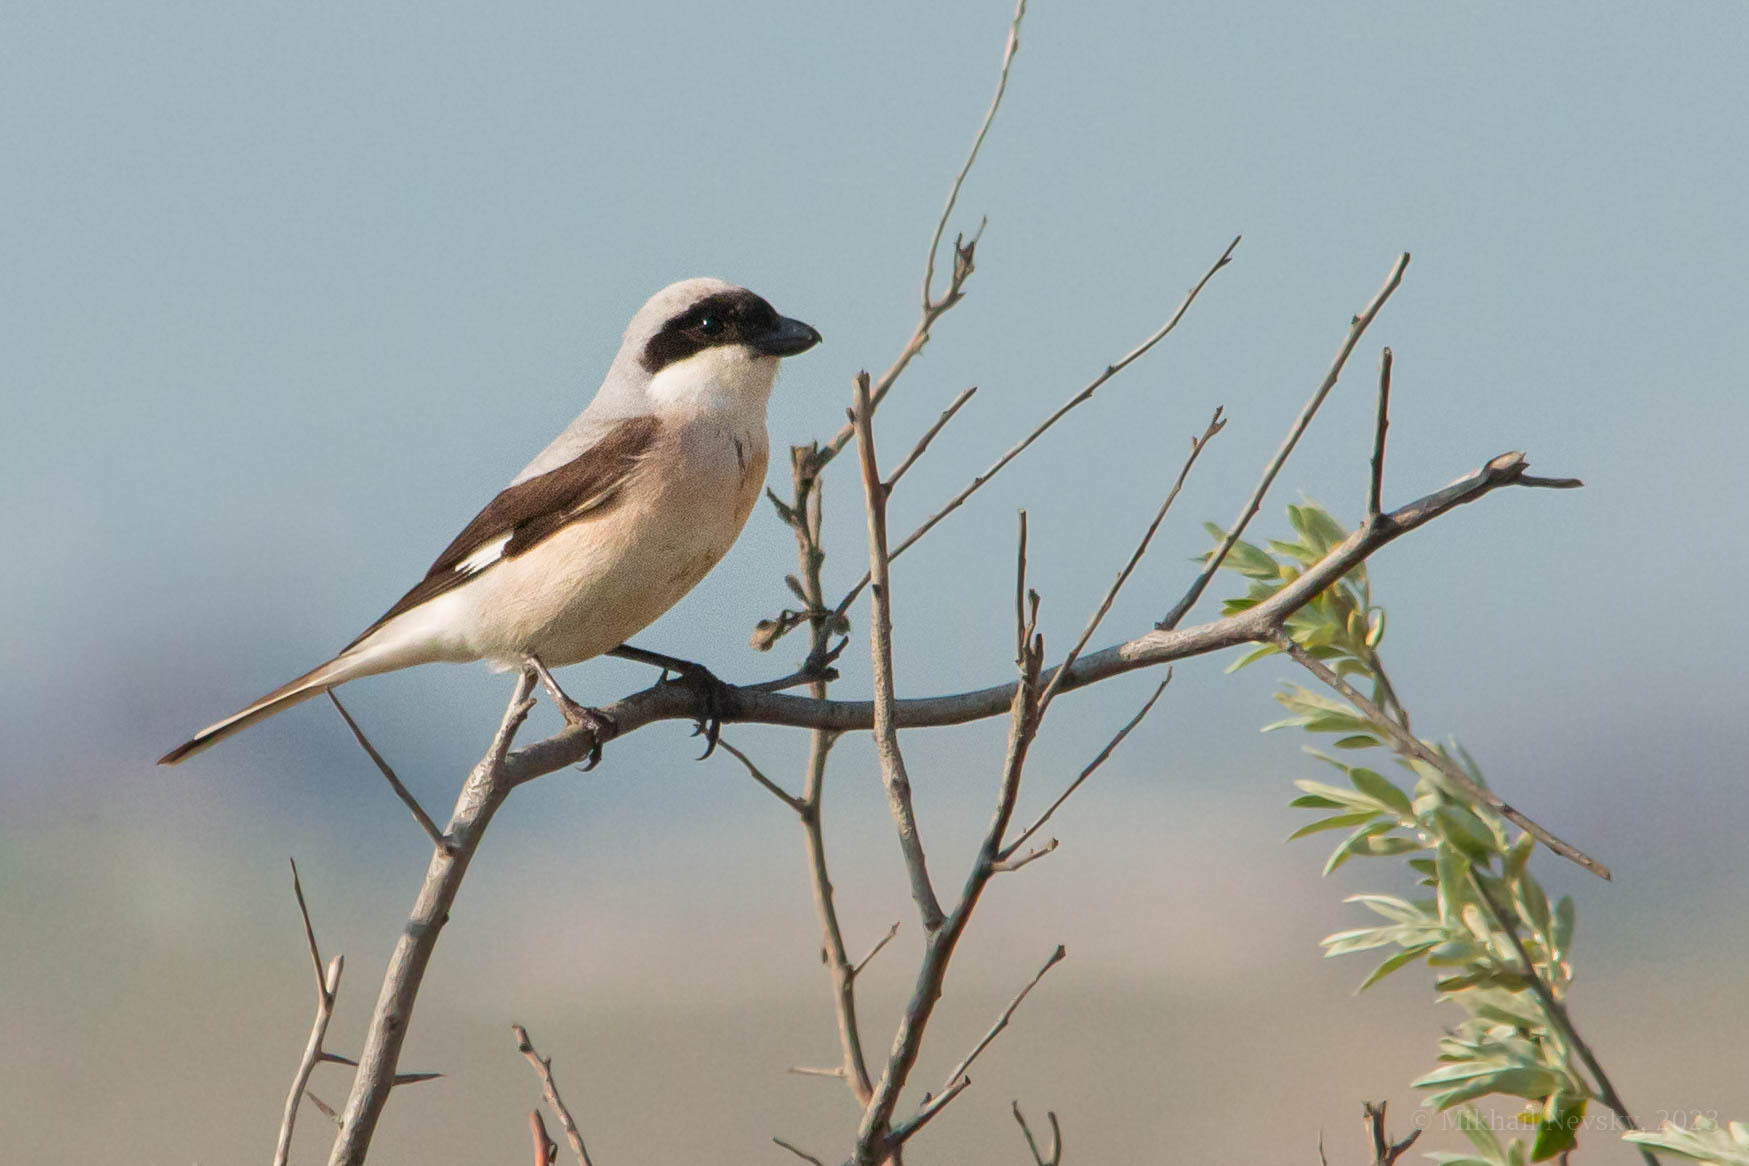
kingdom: Animalia
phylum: Chordata
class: Aves
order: Passeriformes
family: Laniidae
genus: Lanius
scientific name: Lanius minor
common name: Lesser grey shrike
